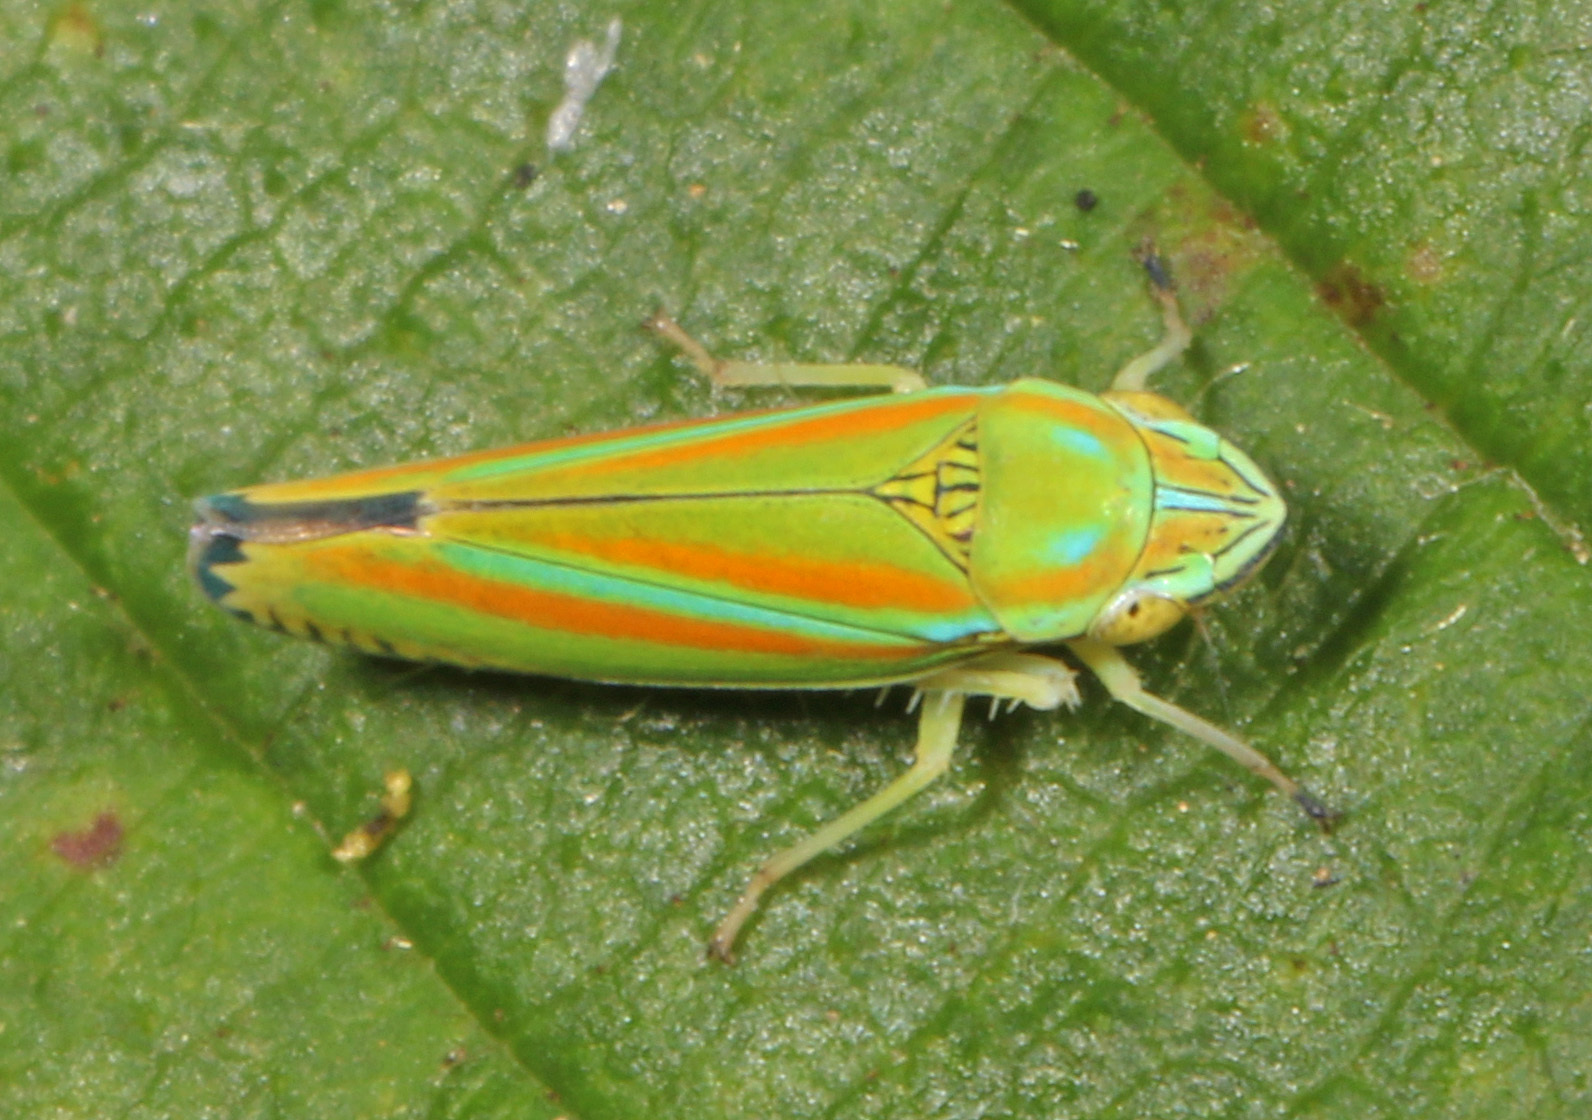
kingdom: Animalia
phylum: Arthropoda
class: Insecta
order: Hemiptera
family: Cicadellidae
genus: Graphocephala
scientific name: Graphocephala versuta
